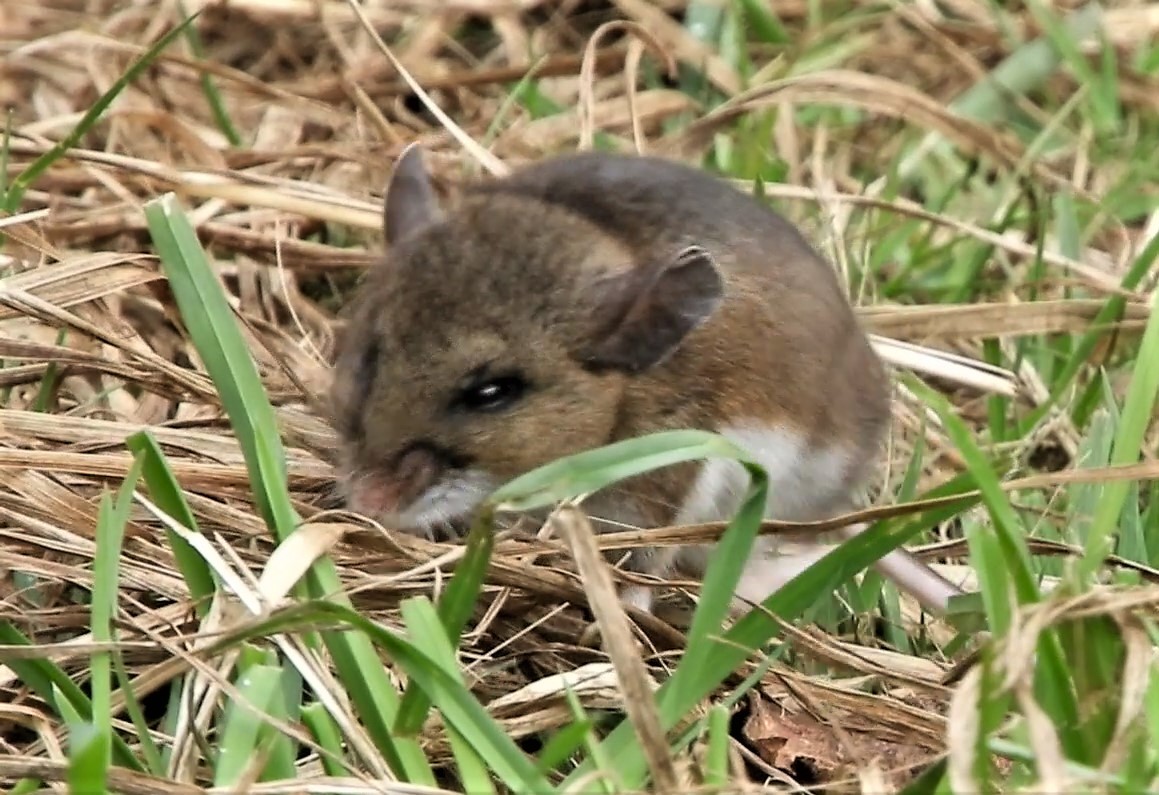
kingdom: Animalia
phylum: Chordata
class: Mammalia
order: Rodentia
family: Cricetidae
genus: Peromyscus
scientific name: Peromyscus maniculatus
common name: Deer mouse
